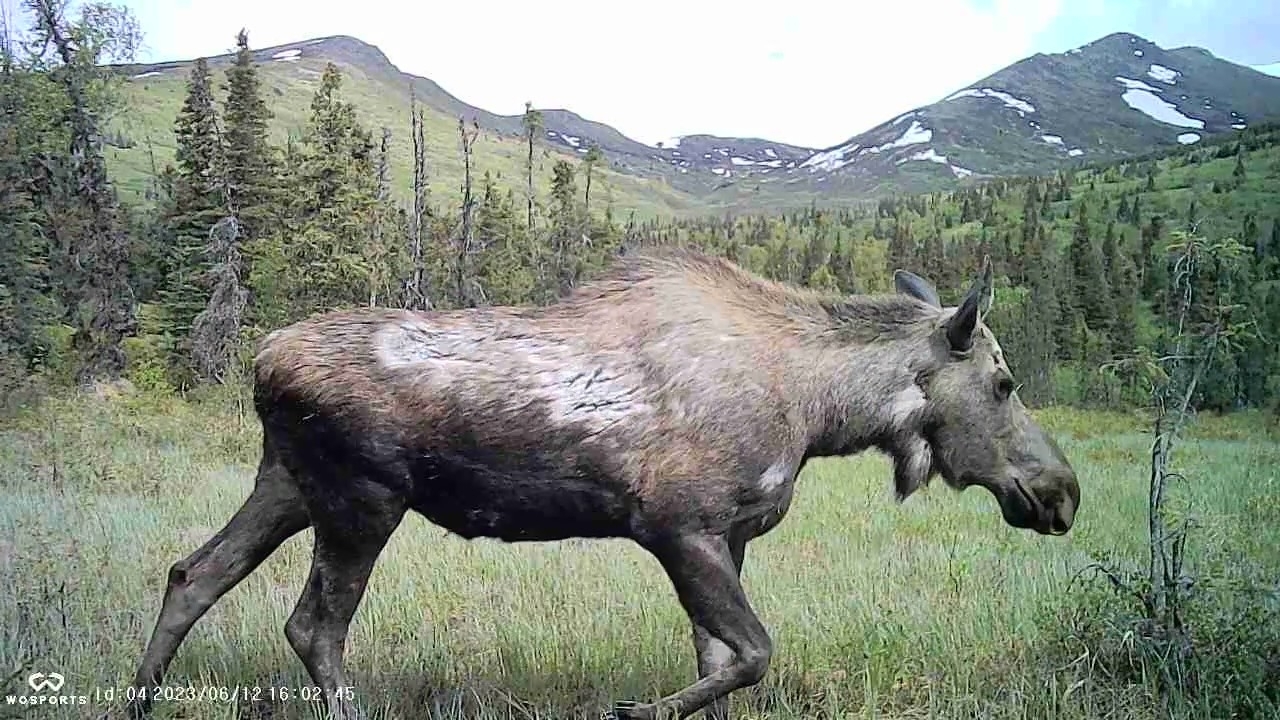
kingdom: Animalia
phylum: Chordata
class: Mammalia
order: Artiodactyla
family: Cervidae
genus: Alces
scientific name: Alces americanus
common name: Moose
